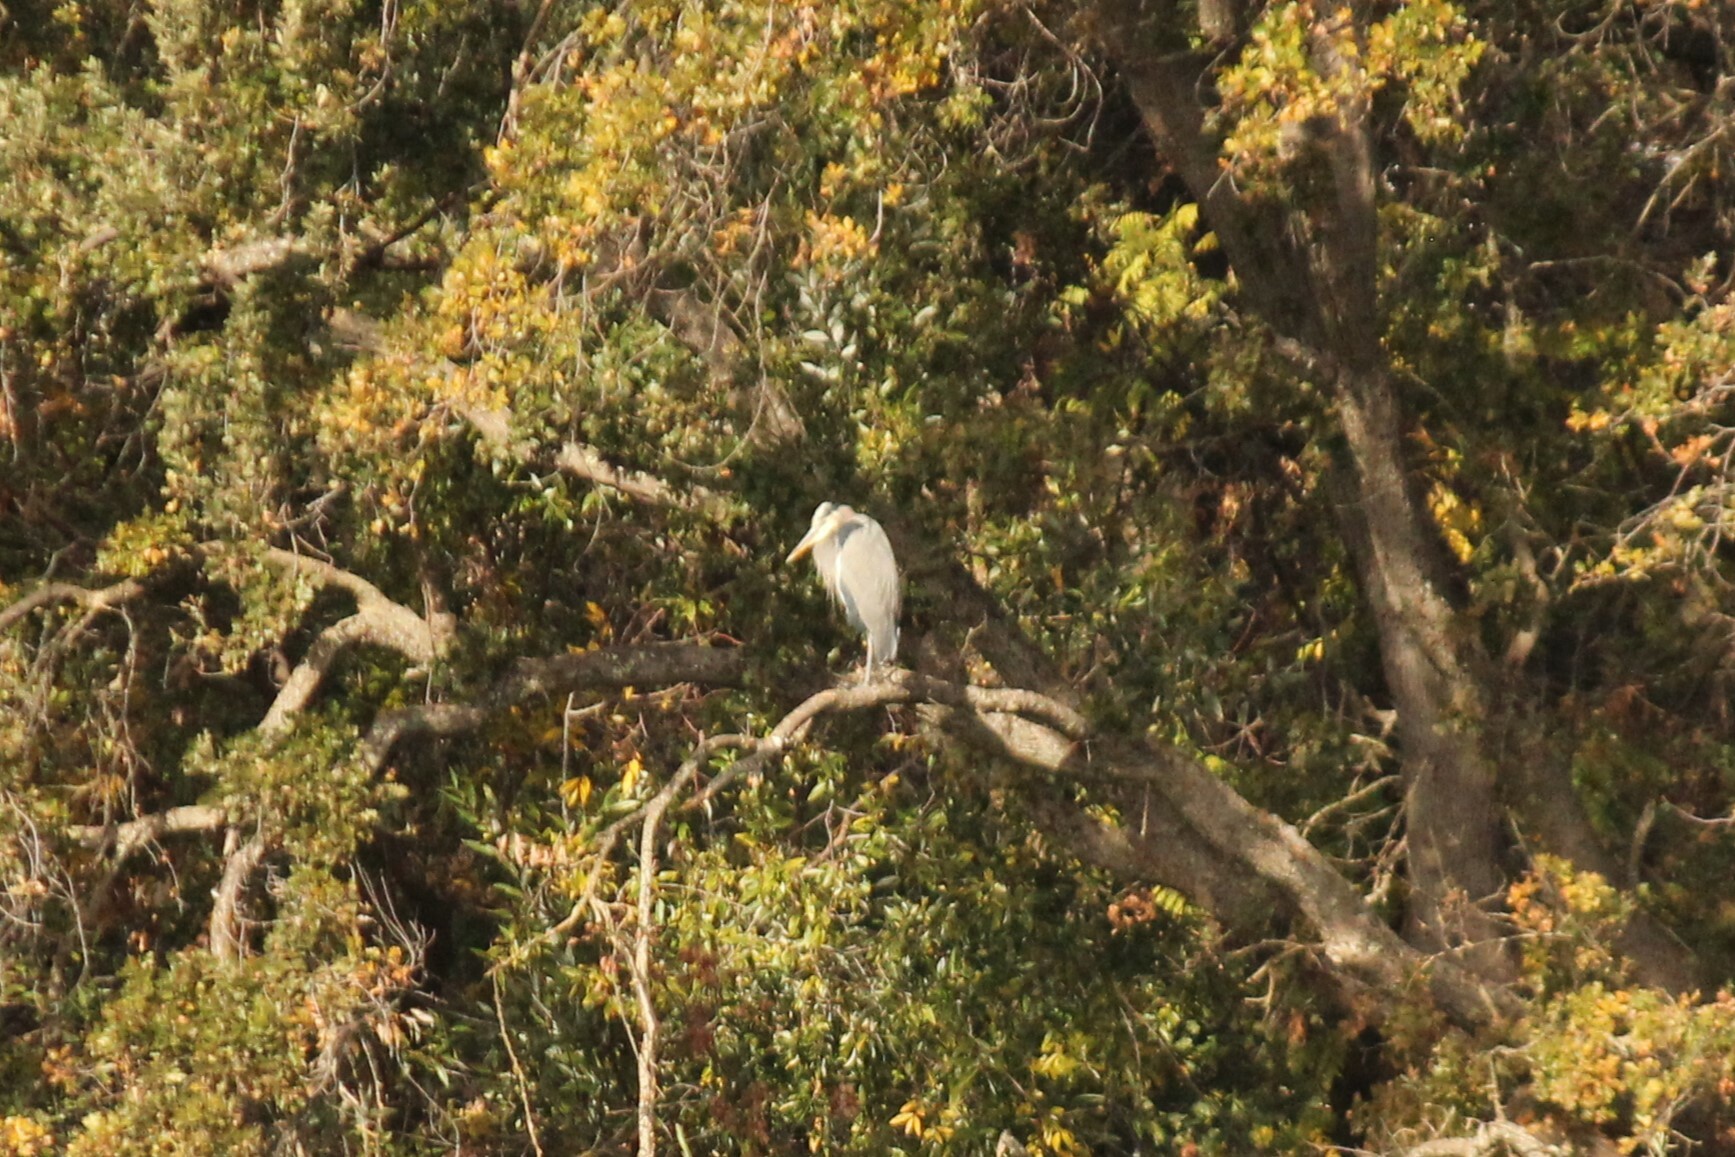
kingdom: Animalia
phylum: Chordata
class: Aves
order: Pelecaniformes
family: Ardeidae
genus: Ardea
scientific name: Ardea herodias
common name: Great blue heron
